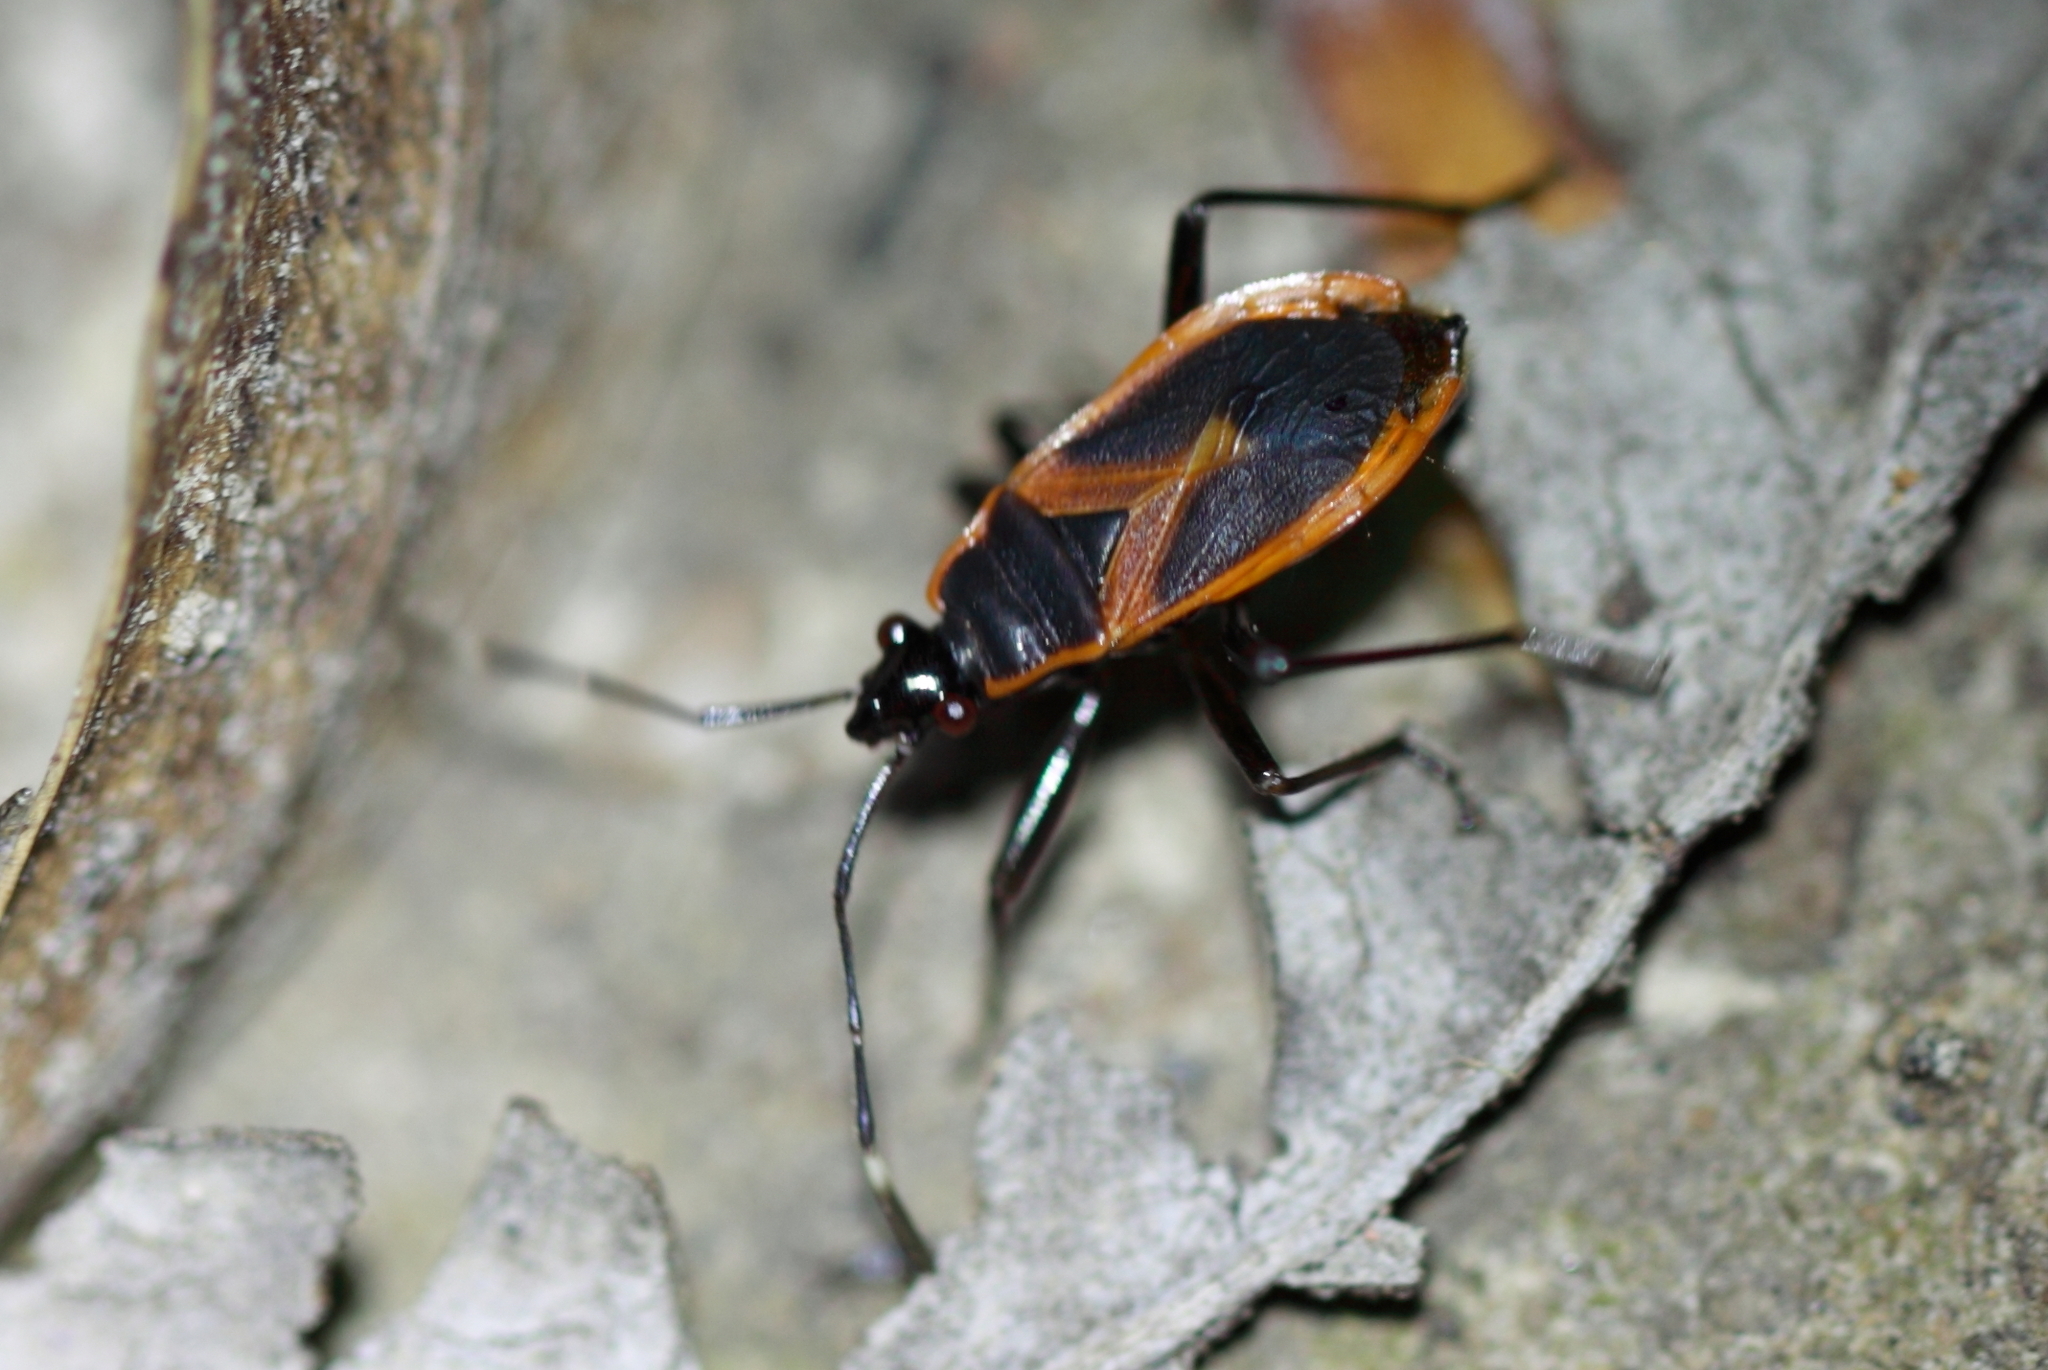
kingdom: Animalia
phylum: Arthropoda
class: Insecta
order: Hemiptera
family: Pyrrhocoridae
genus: Dindymus
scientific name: Dindymus
